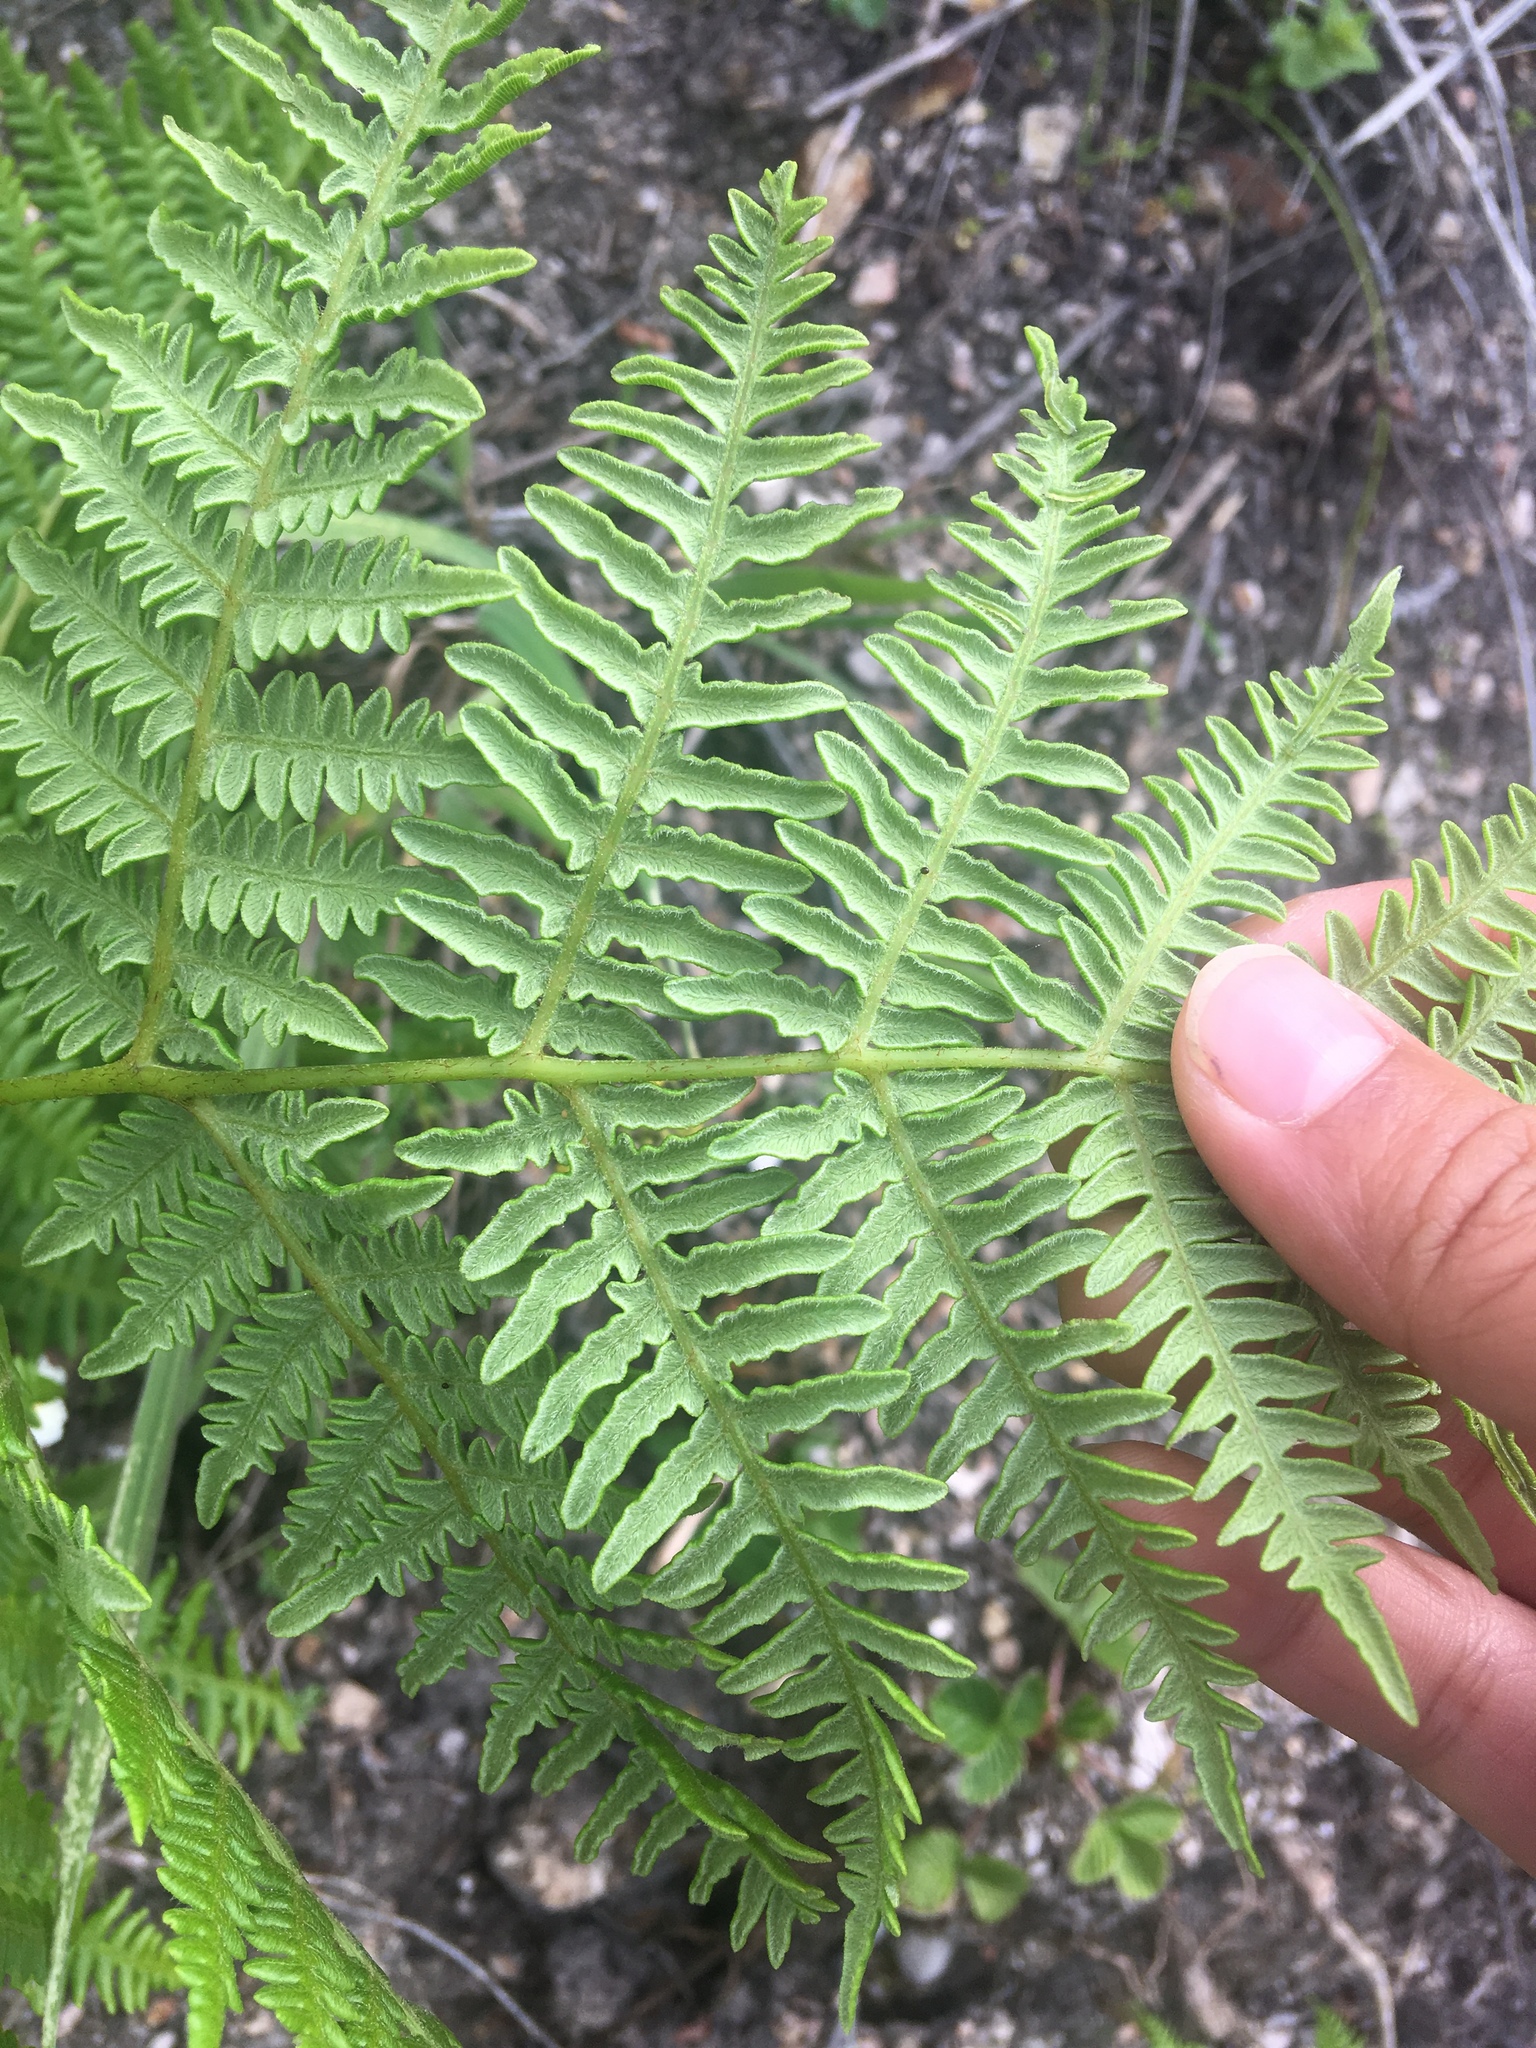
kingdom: Plantae
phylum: Tracheophyta
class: Polypodiopsida
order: Polypodiales
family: Dennstaedtiaceae
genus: Pteridium
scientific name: Pteridium aquilinum
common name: Bracken
